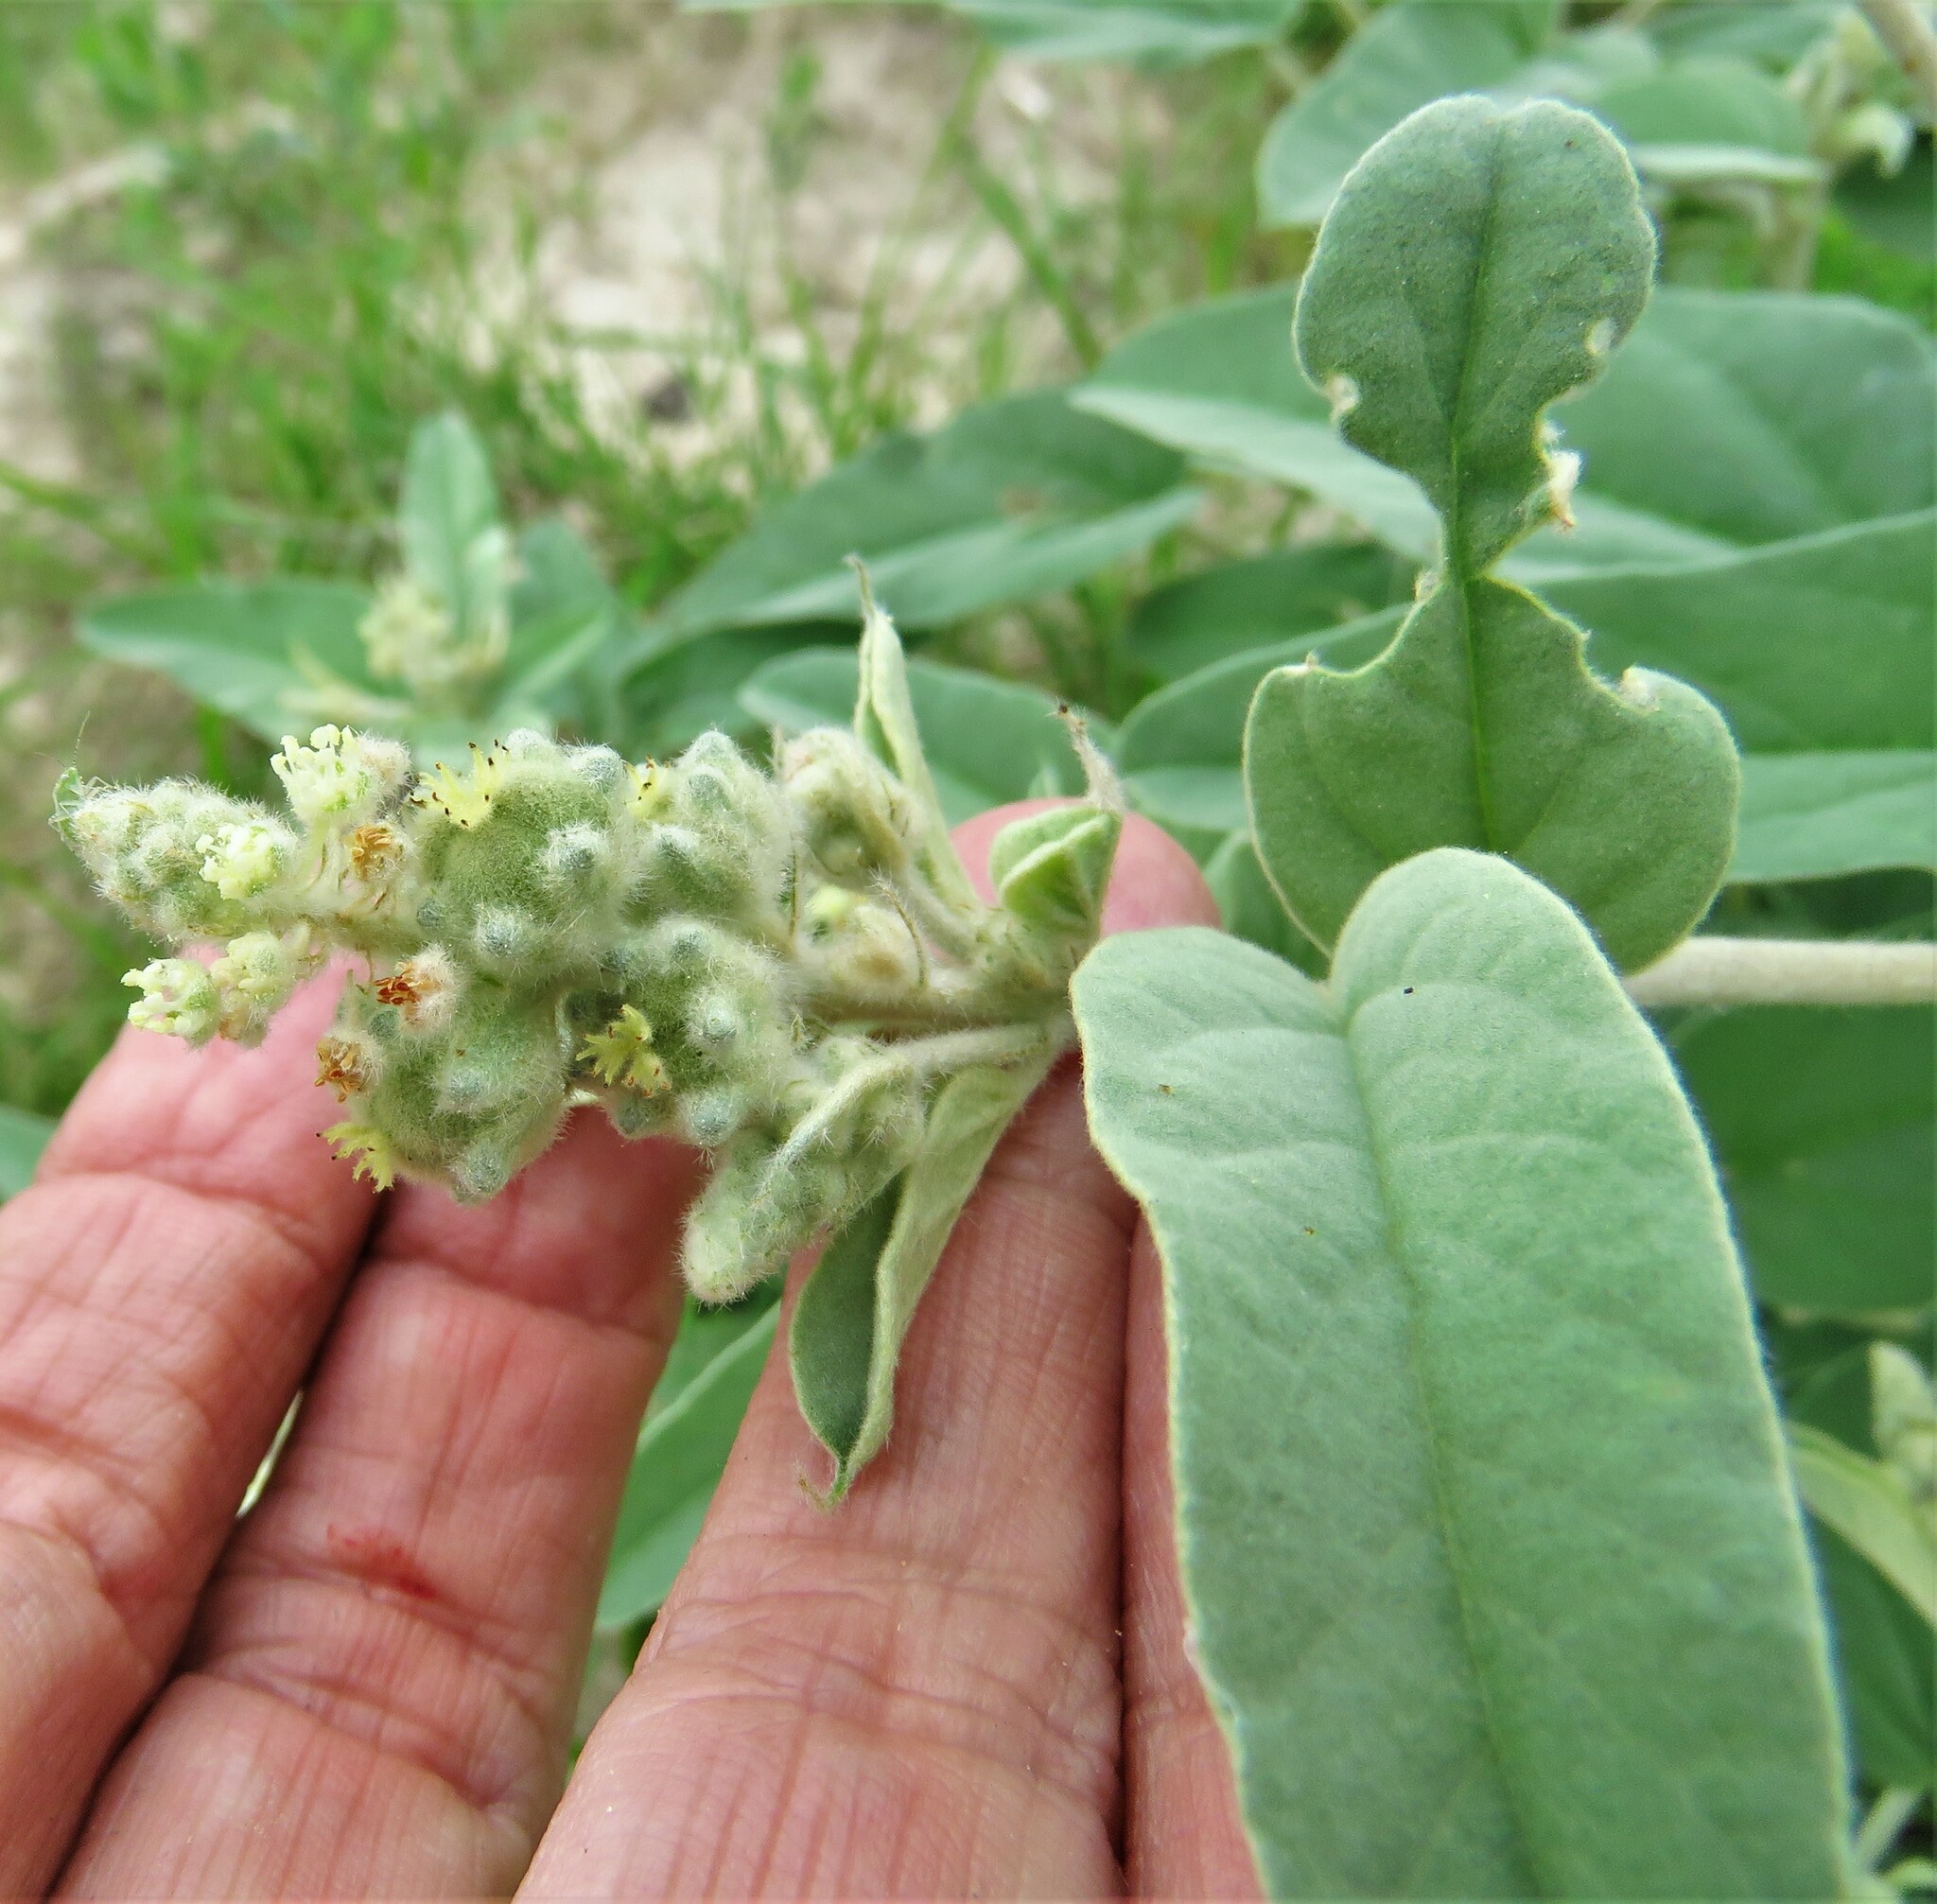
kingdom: Plantae
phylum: Tracheophyta
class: Magnoliopsida
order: Malpighiales
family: Euphorbiaceae
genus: Croton
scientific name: Croton heptalon
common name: Woolly croton
